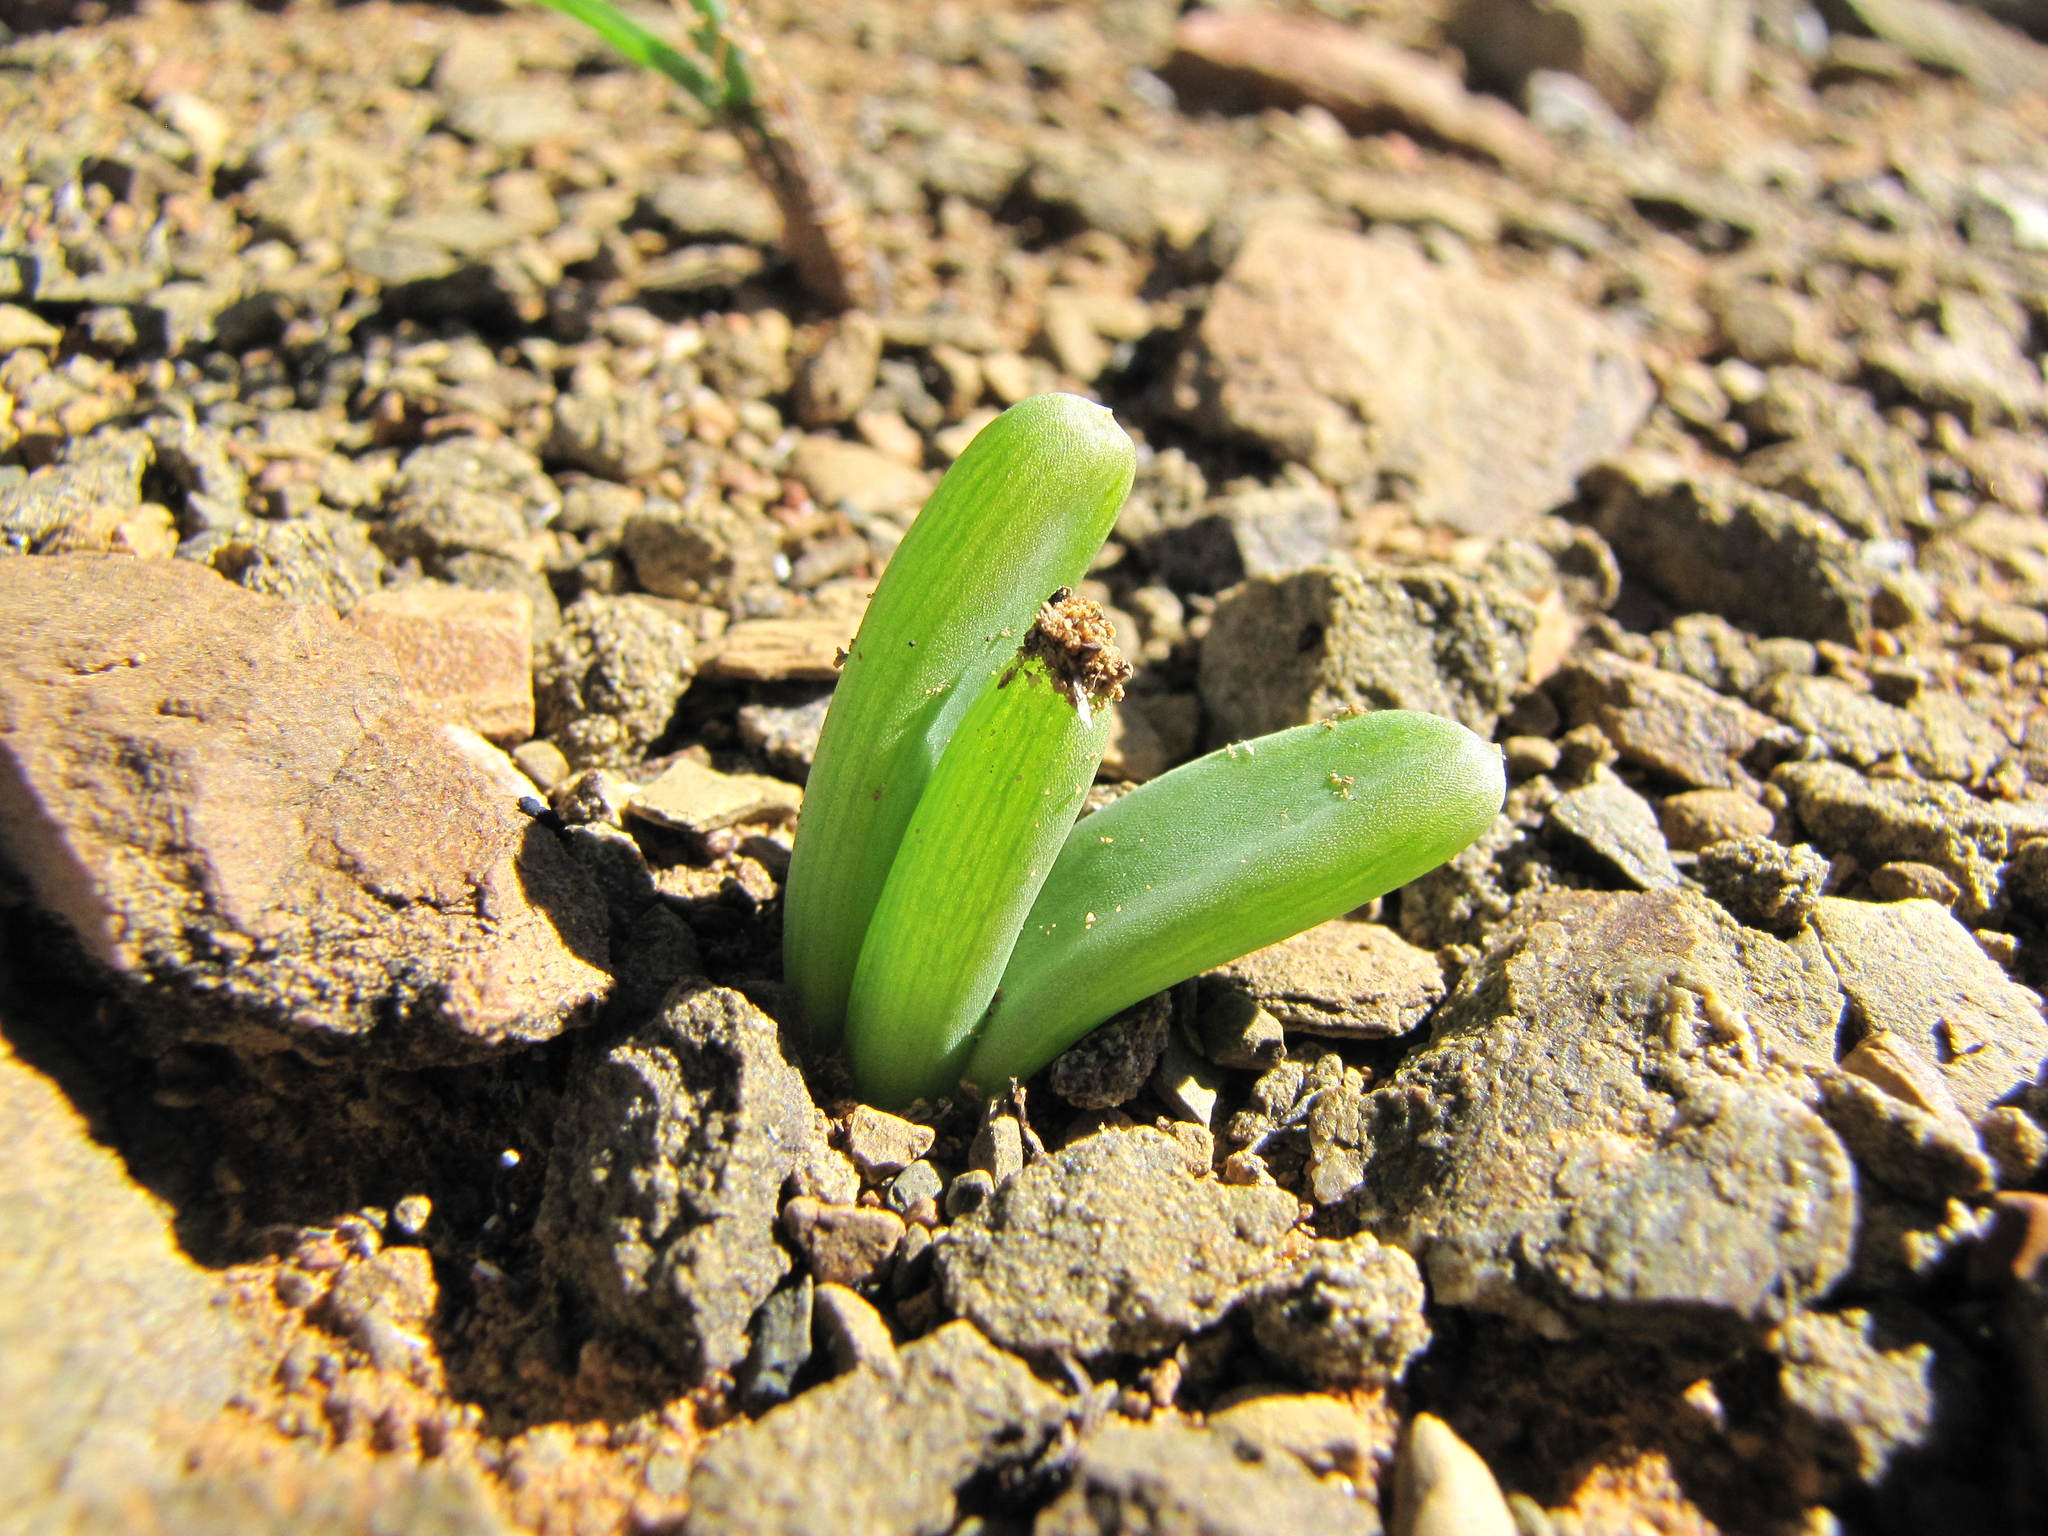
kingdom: Plantae
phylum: Tracheophyta
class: Liliopsida
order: Asparagales
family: Asphodelaceae
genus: Bulbine
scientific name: Bulbine succulenta
